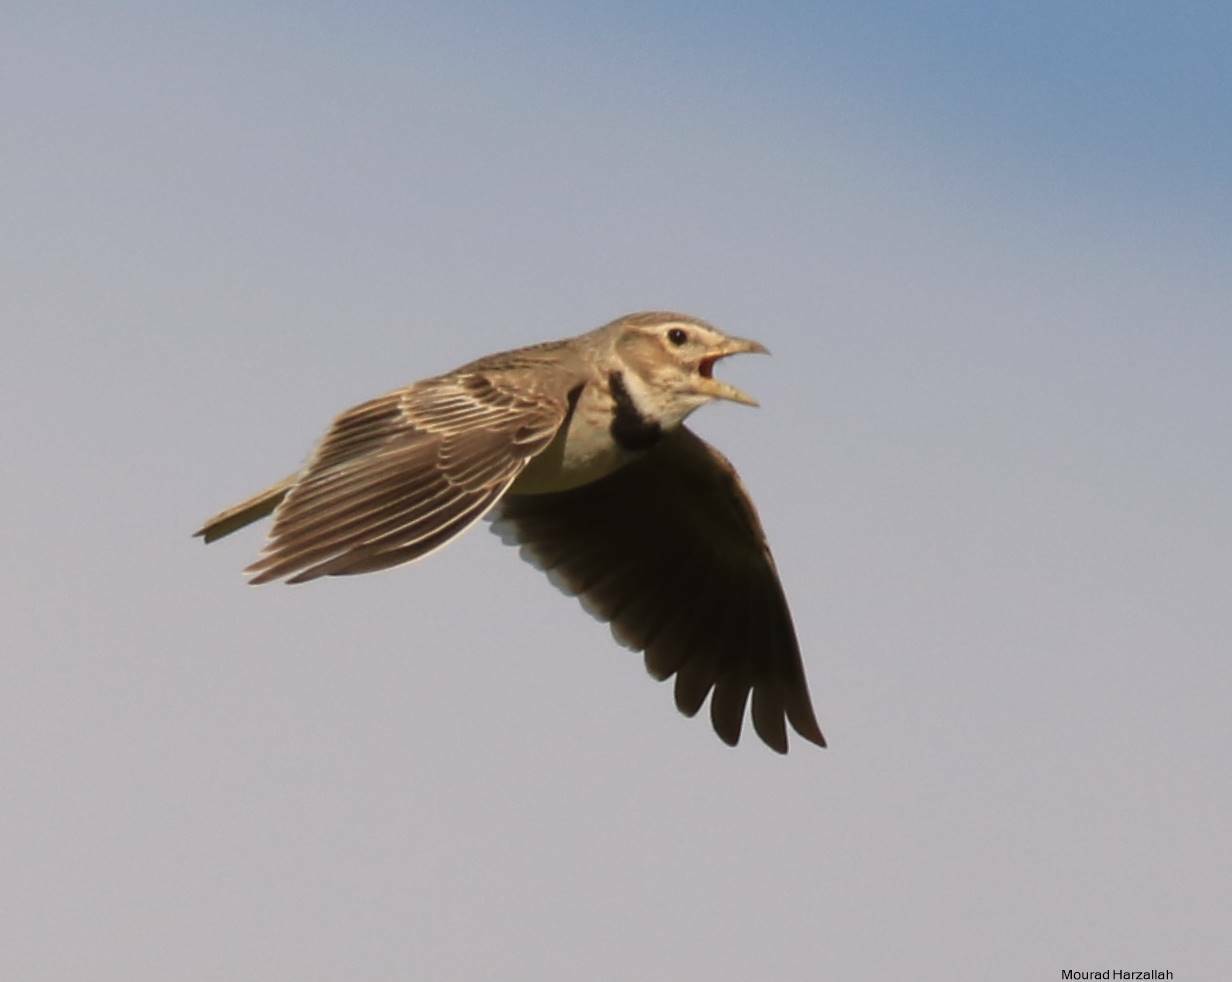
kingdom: Animalia
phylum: Chordata
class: Aves
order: Passeriformes
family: Alaudidae
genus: Melanocorypha
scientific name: Melanocorypha calandra
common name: Calandra lark
